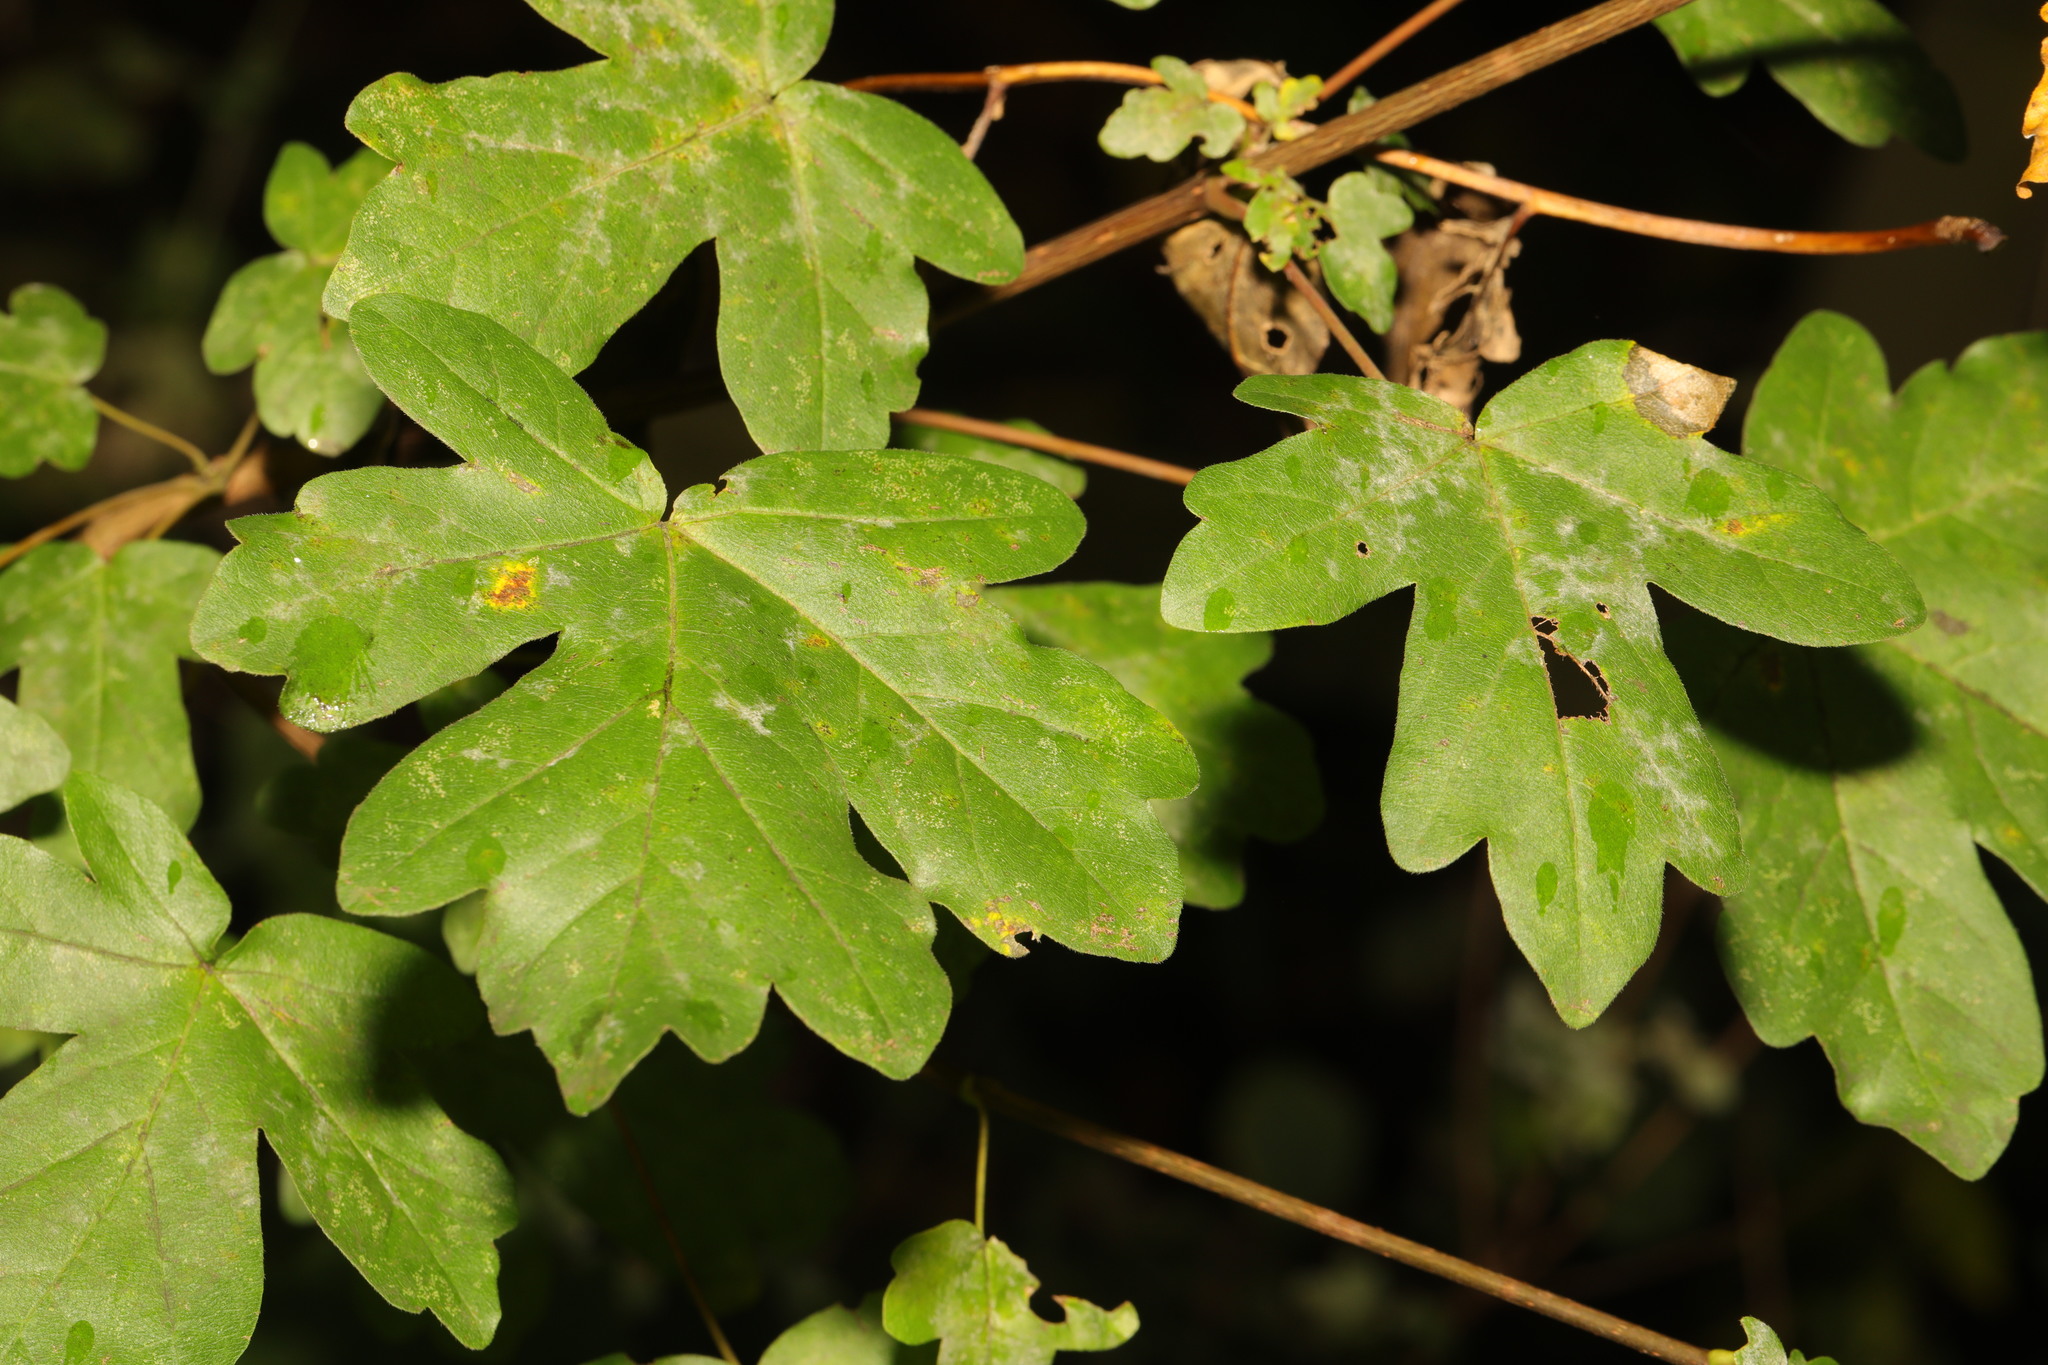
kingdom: Plantae
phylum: Tracheophyta
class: Magnoliopsida
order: Sapindales
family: Sapindaceae
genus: Acer
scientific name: Acer campestre
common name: Field maple
